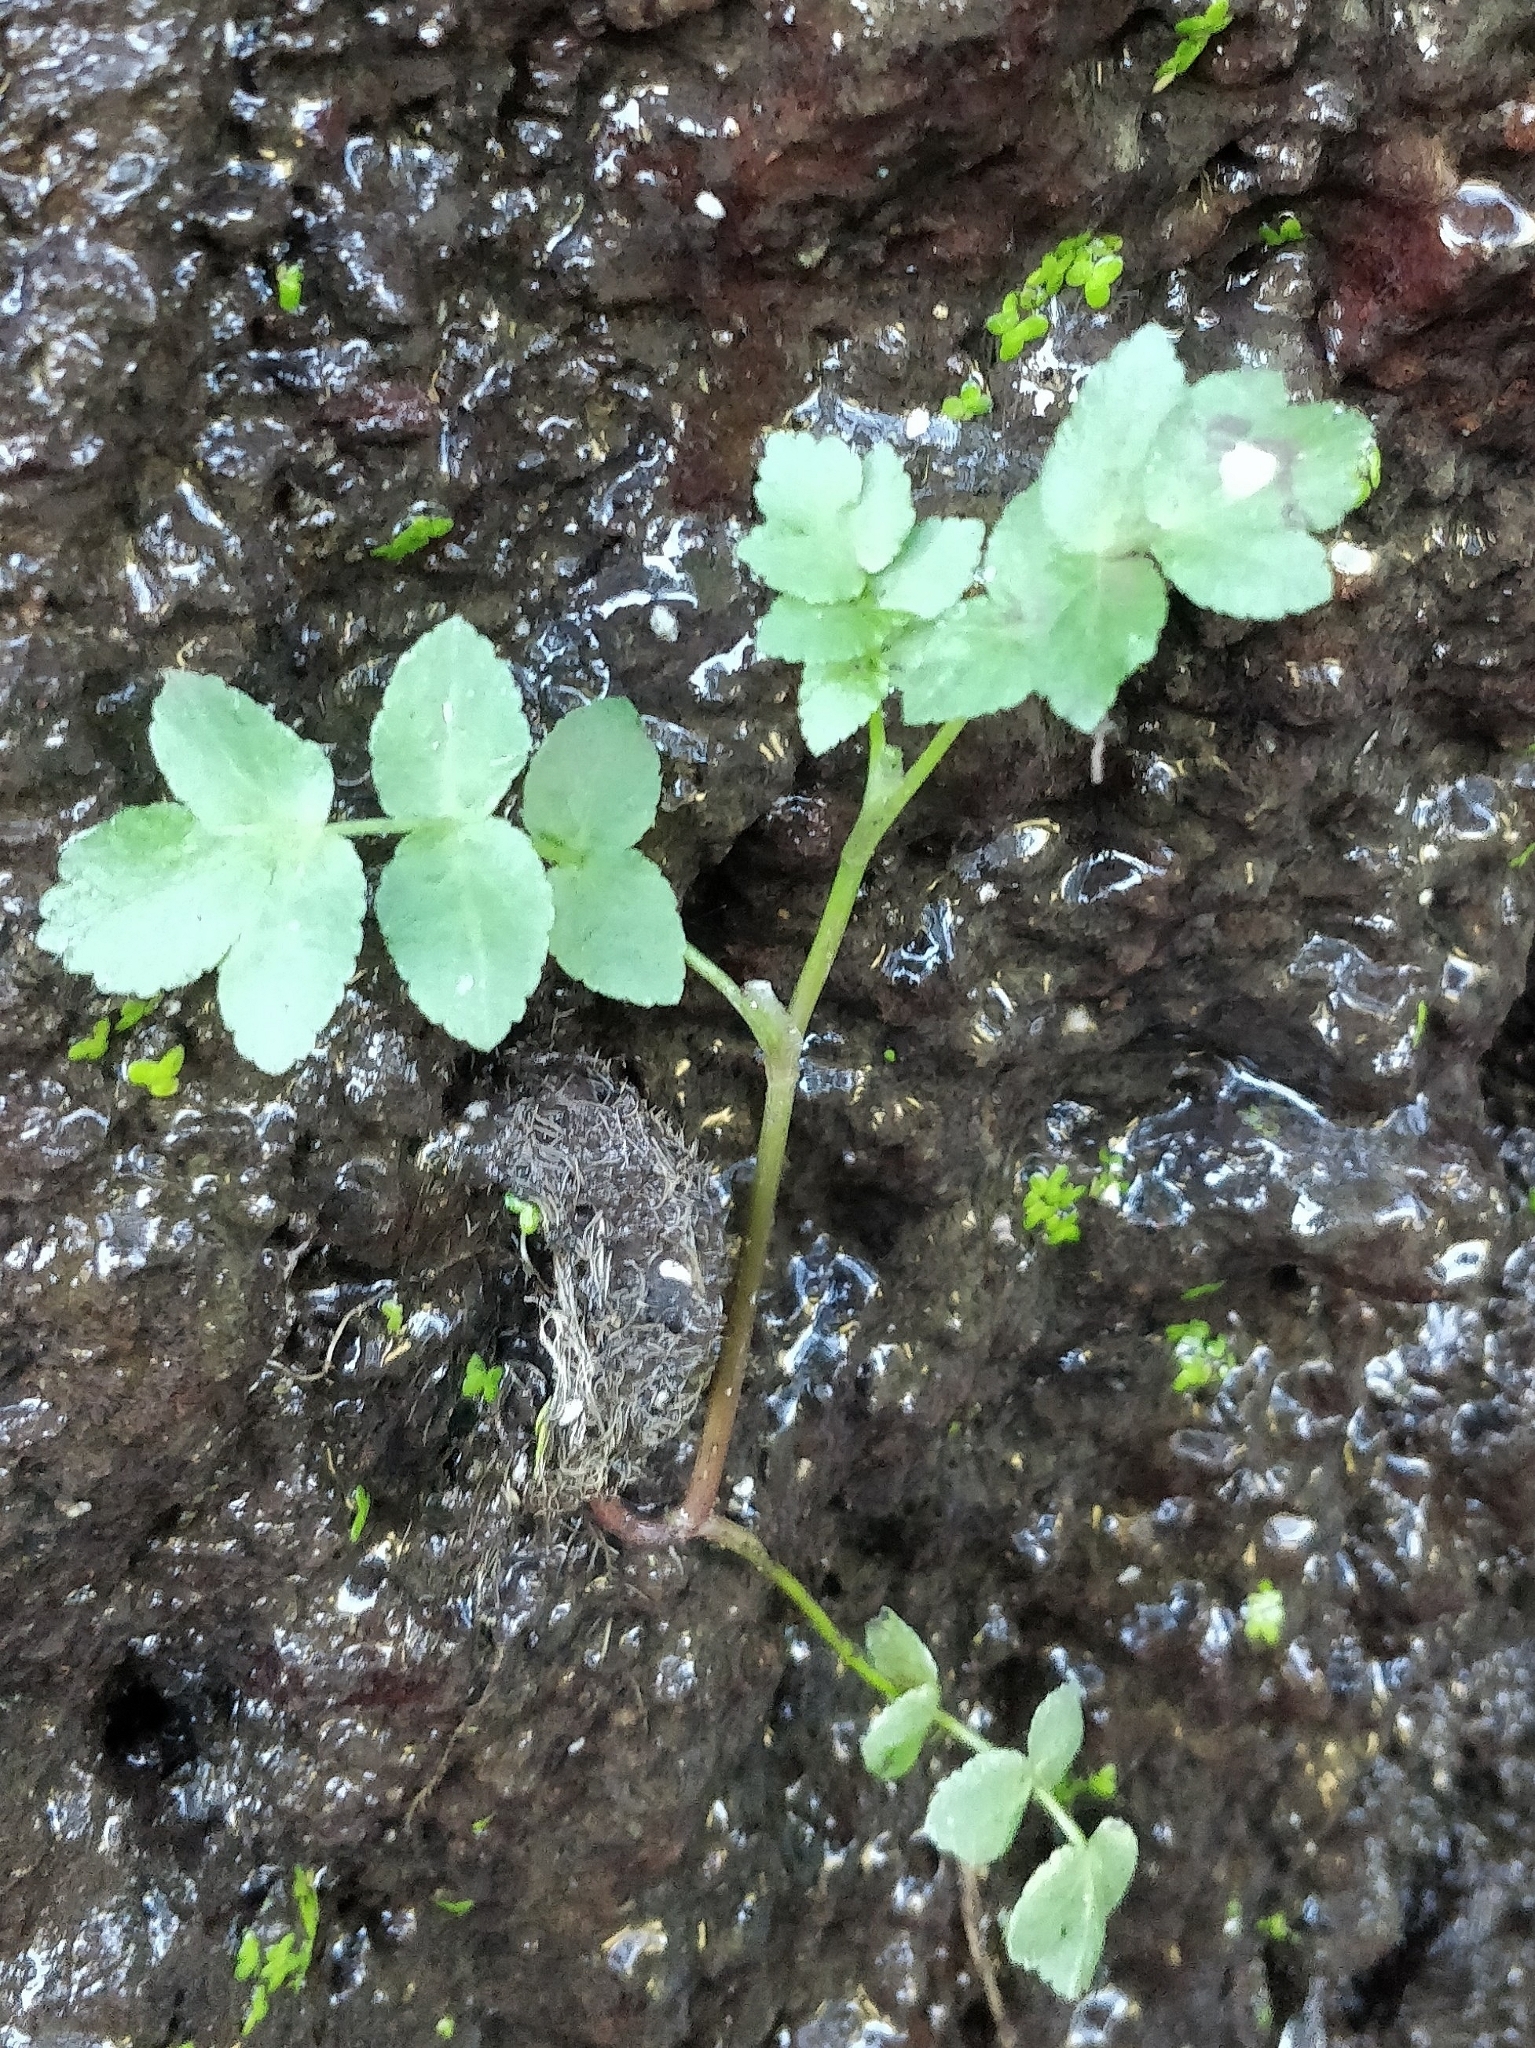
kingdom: Plantae
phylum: Tracheophyta
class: Magnoliopsida
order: Apiales
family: Apiaceae
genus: Helosciadium
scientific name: Helosciadium nodiflorum
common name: Fool's-watercress
